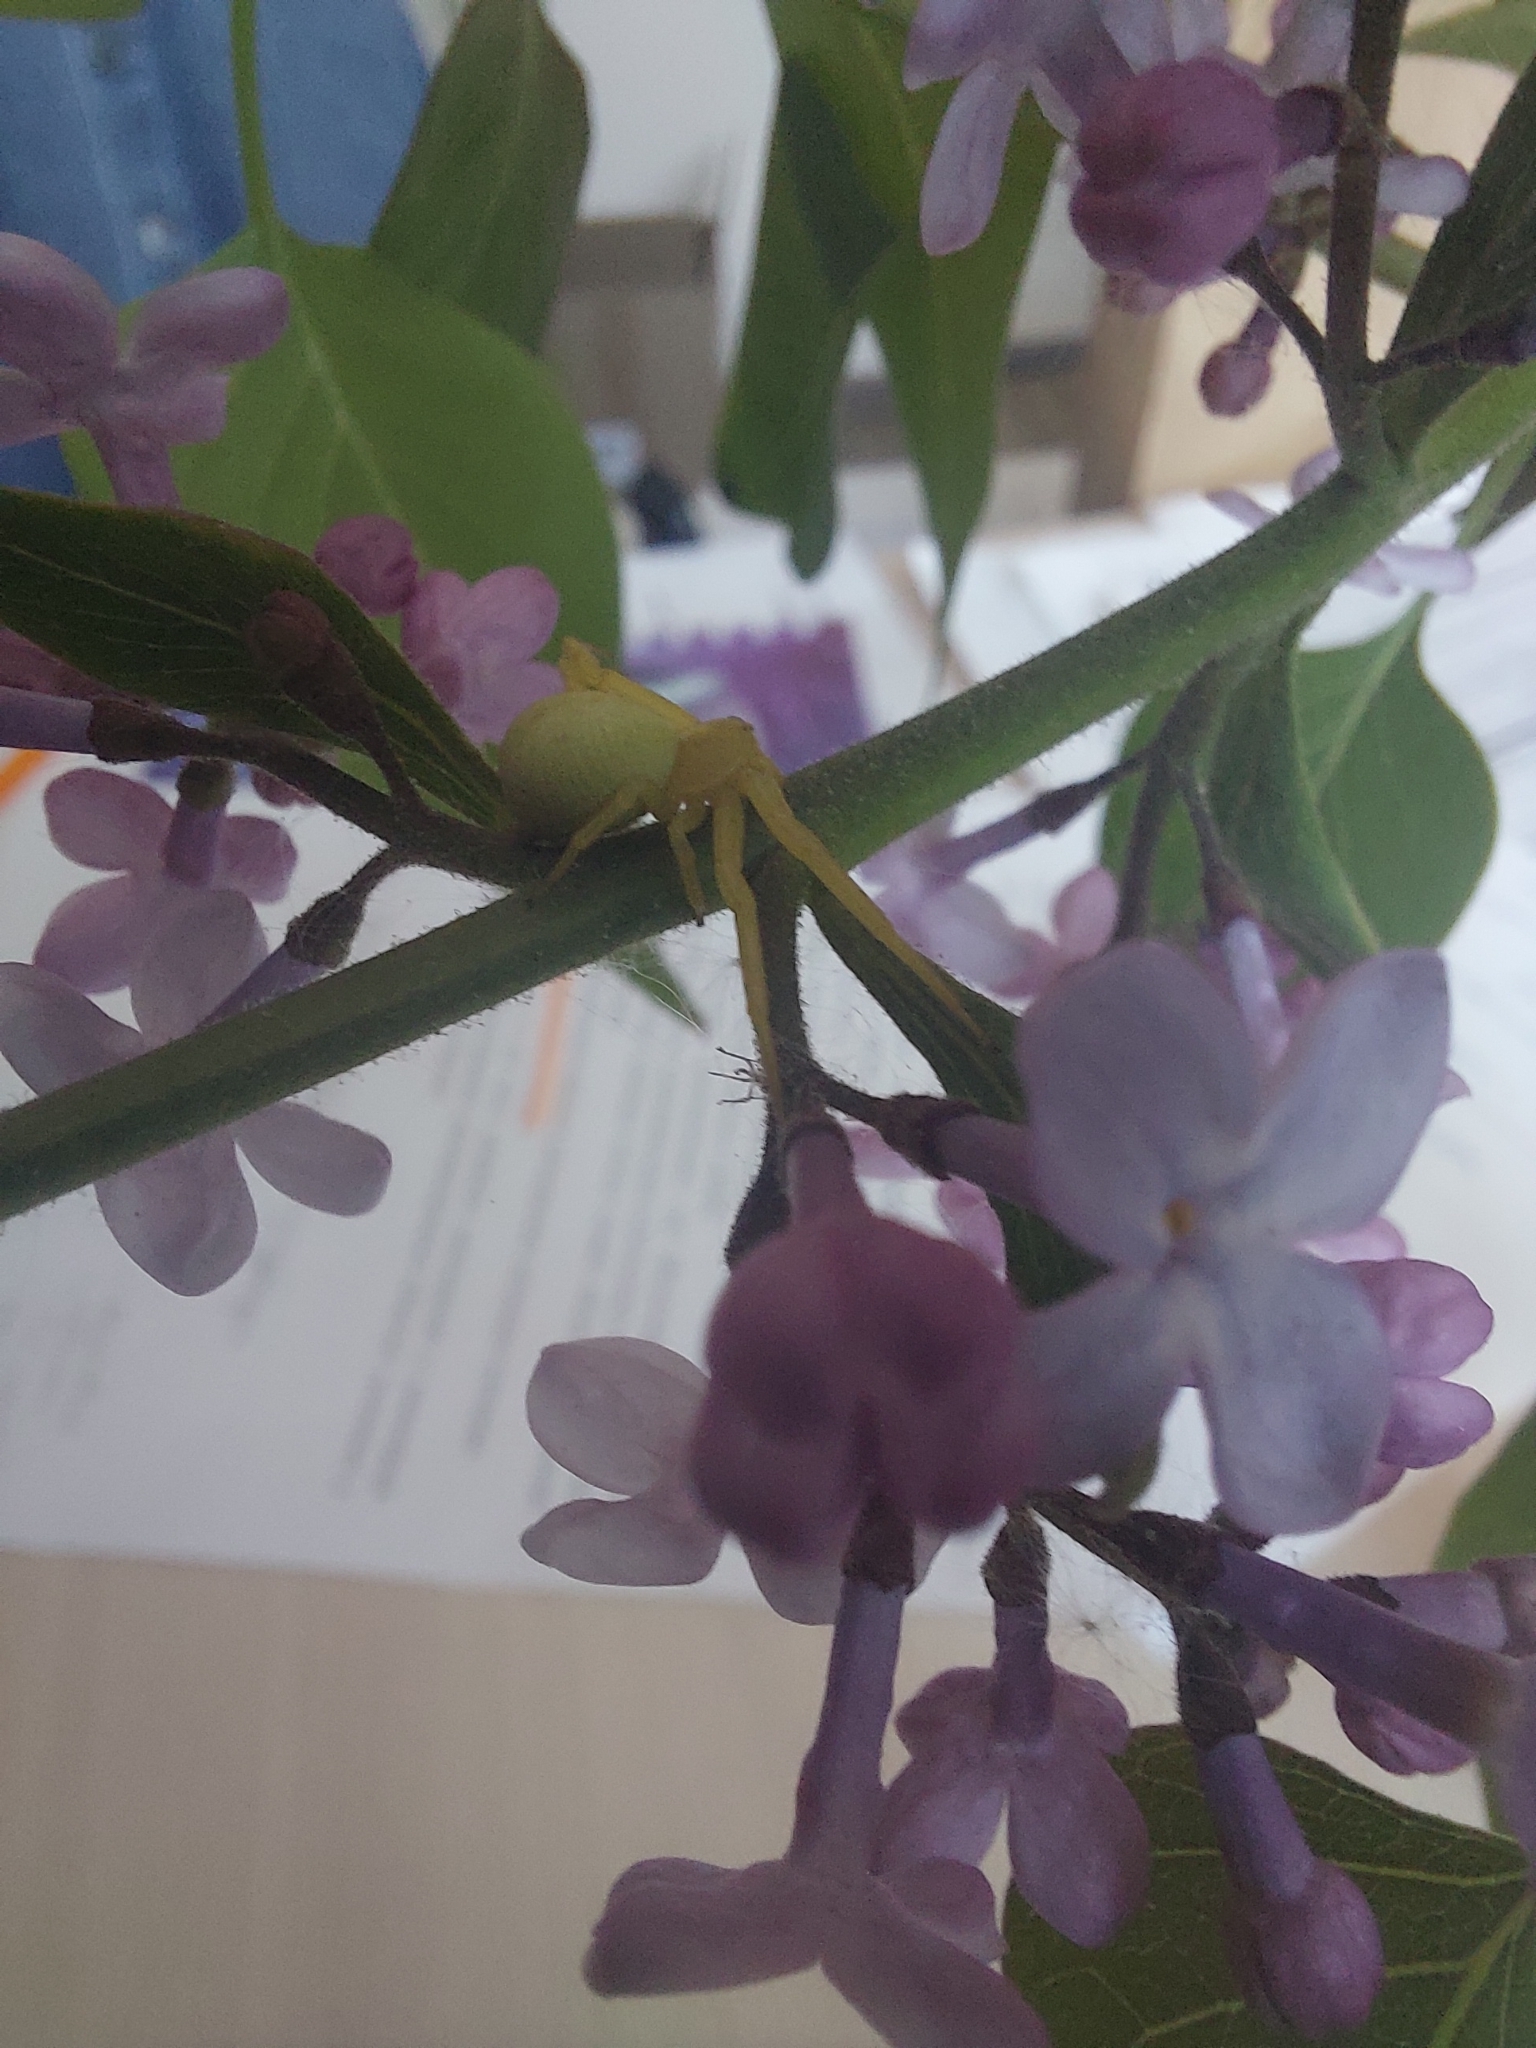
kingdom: Animalia
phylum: Arthropoda
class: Arachnida
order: Araneae
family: Thomisidae
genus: Misumena
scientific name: Misumena vatia
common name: Goldenrod crab spider
